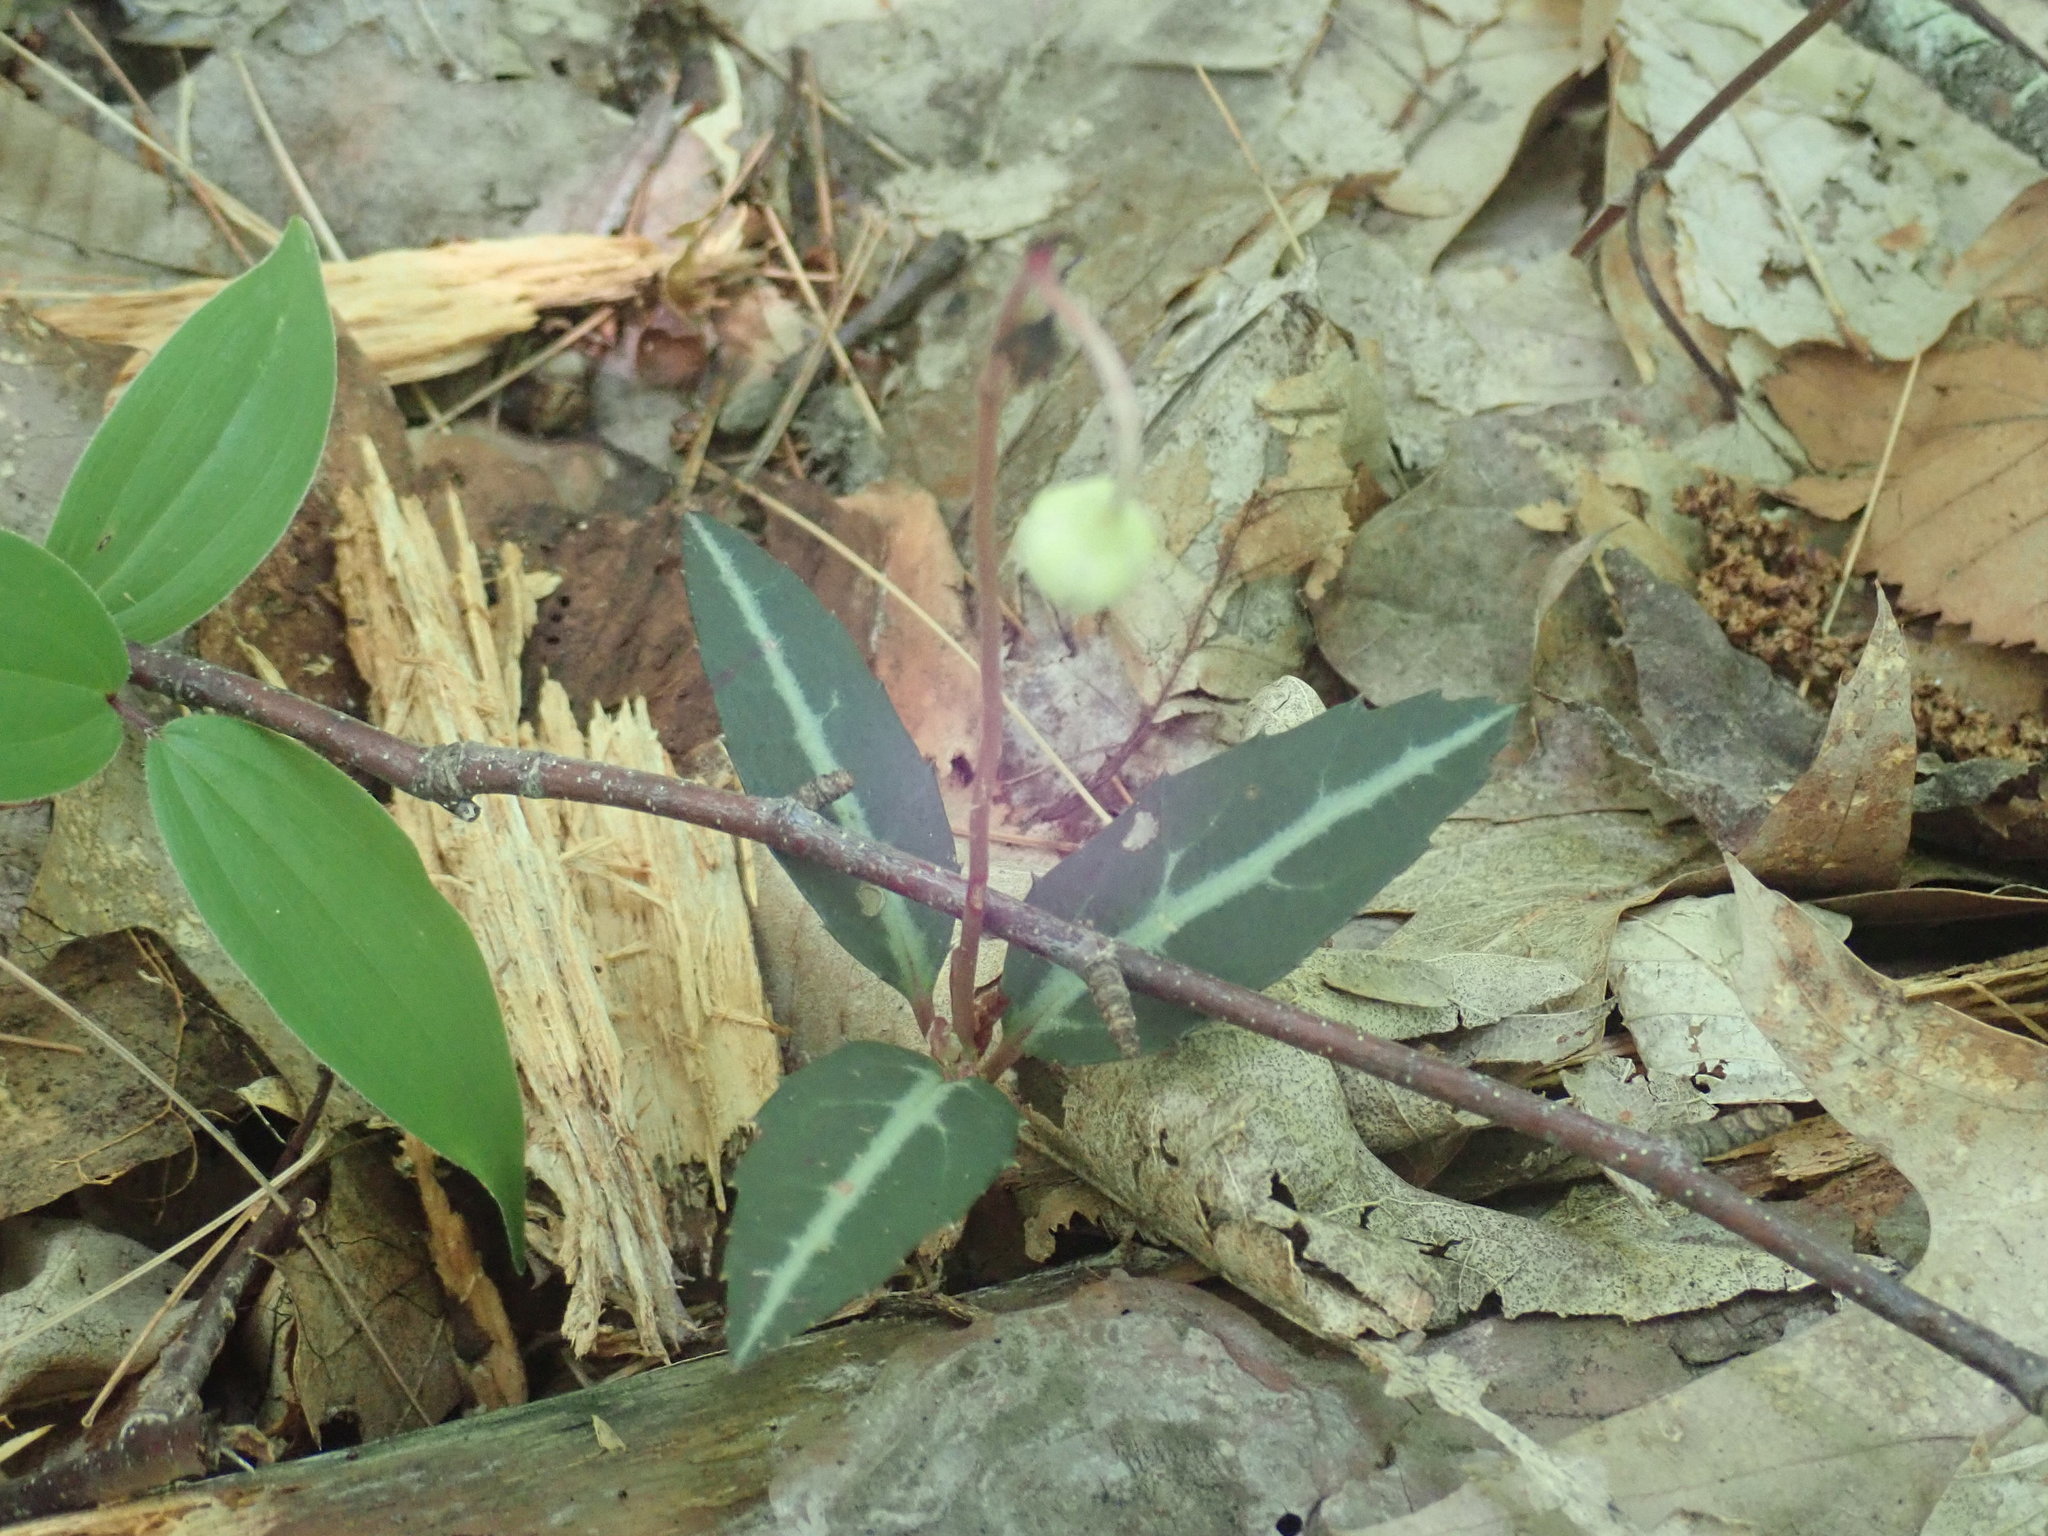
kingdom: Plantae
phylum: Tracheophyta
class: Magnoliopsida
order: Ericales
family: Ericaceae
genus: Chimaphila
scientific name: Chimaphila maculata
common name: Spotted pipsissewa
